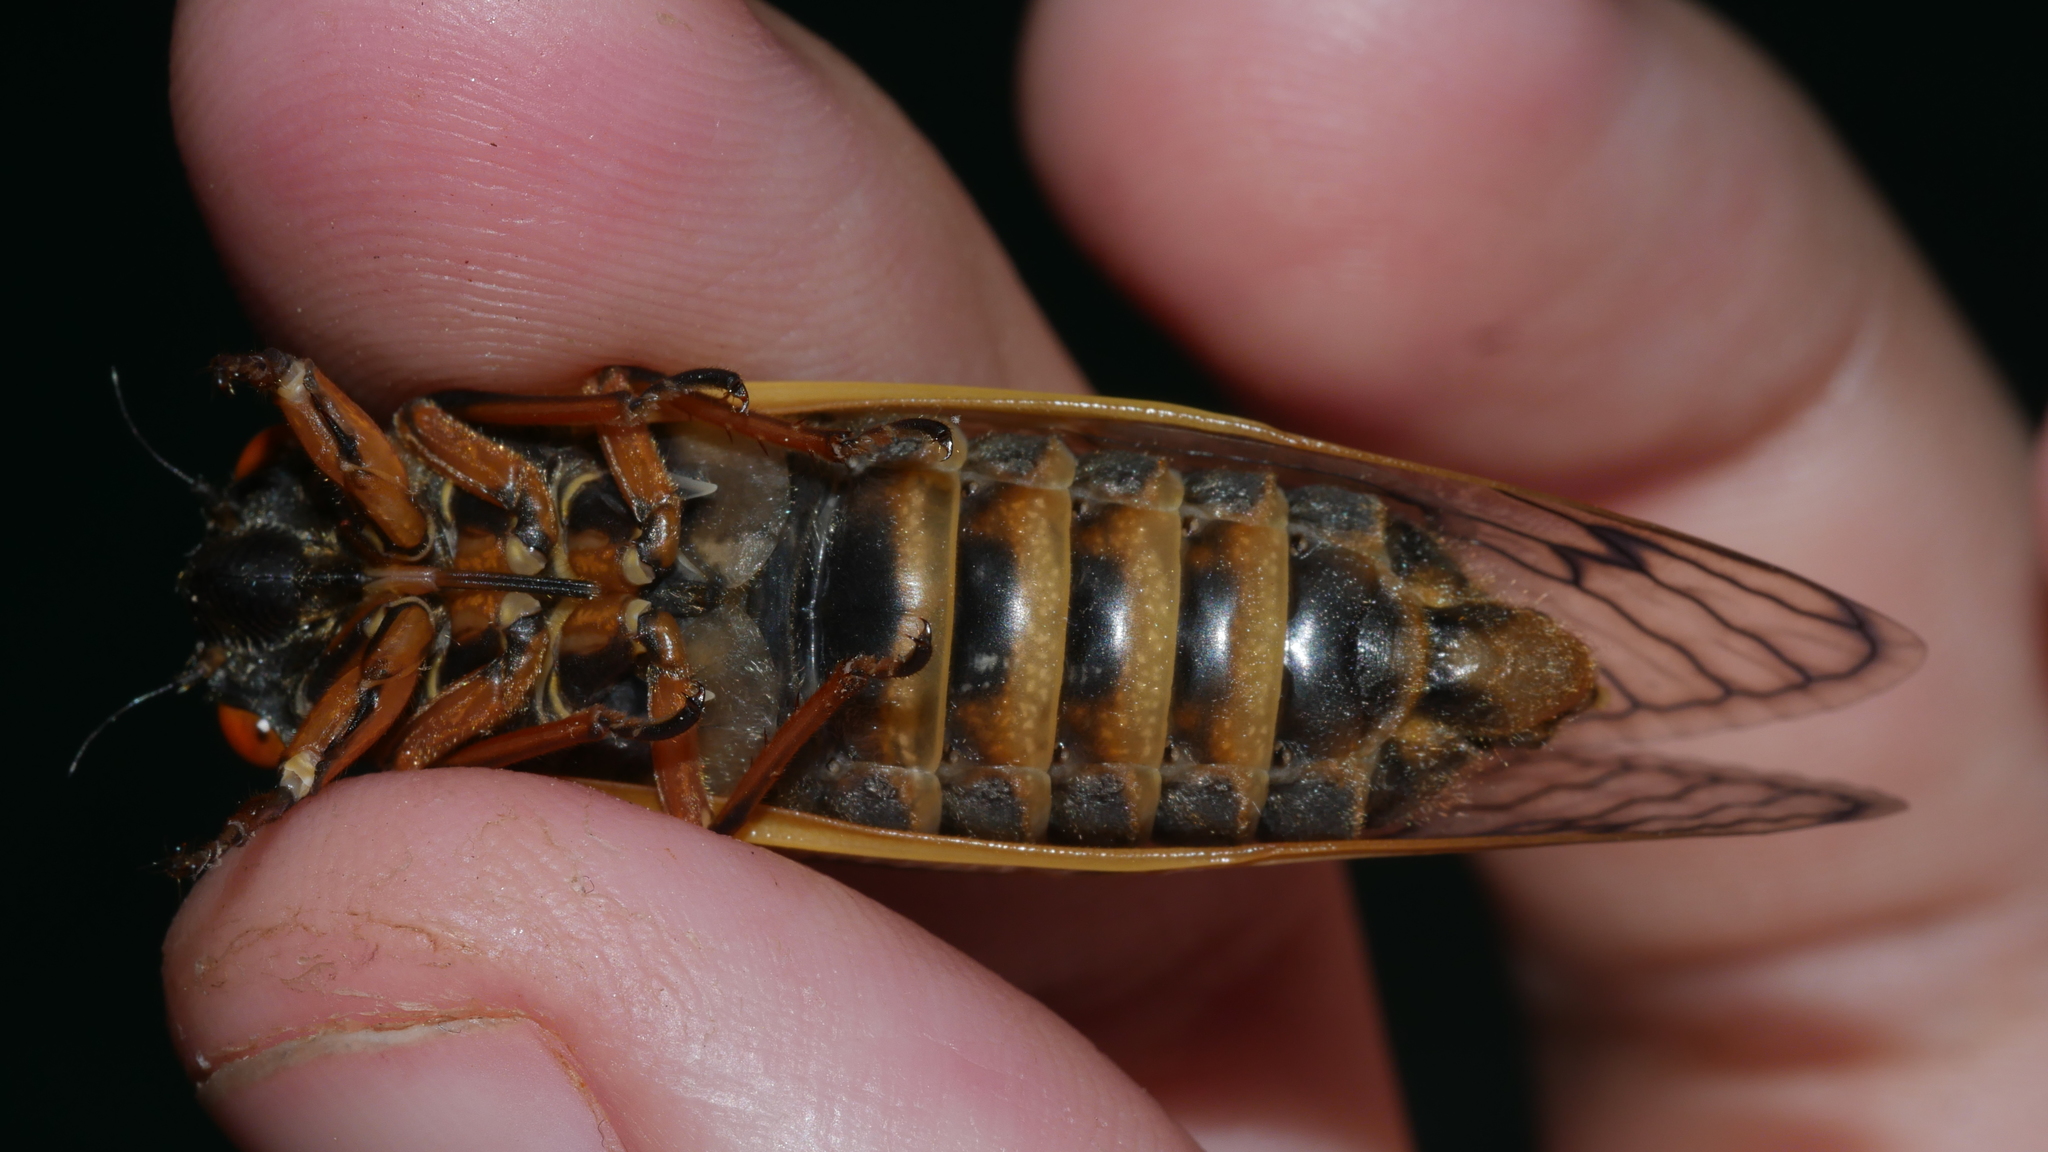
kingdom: Animalia
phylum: Arthropoda
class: Insecta
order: Hemiptera
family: Cicadidae
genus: Magicicada
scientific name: Magicicada septendecim
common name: Periodical cicada
